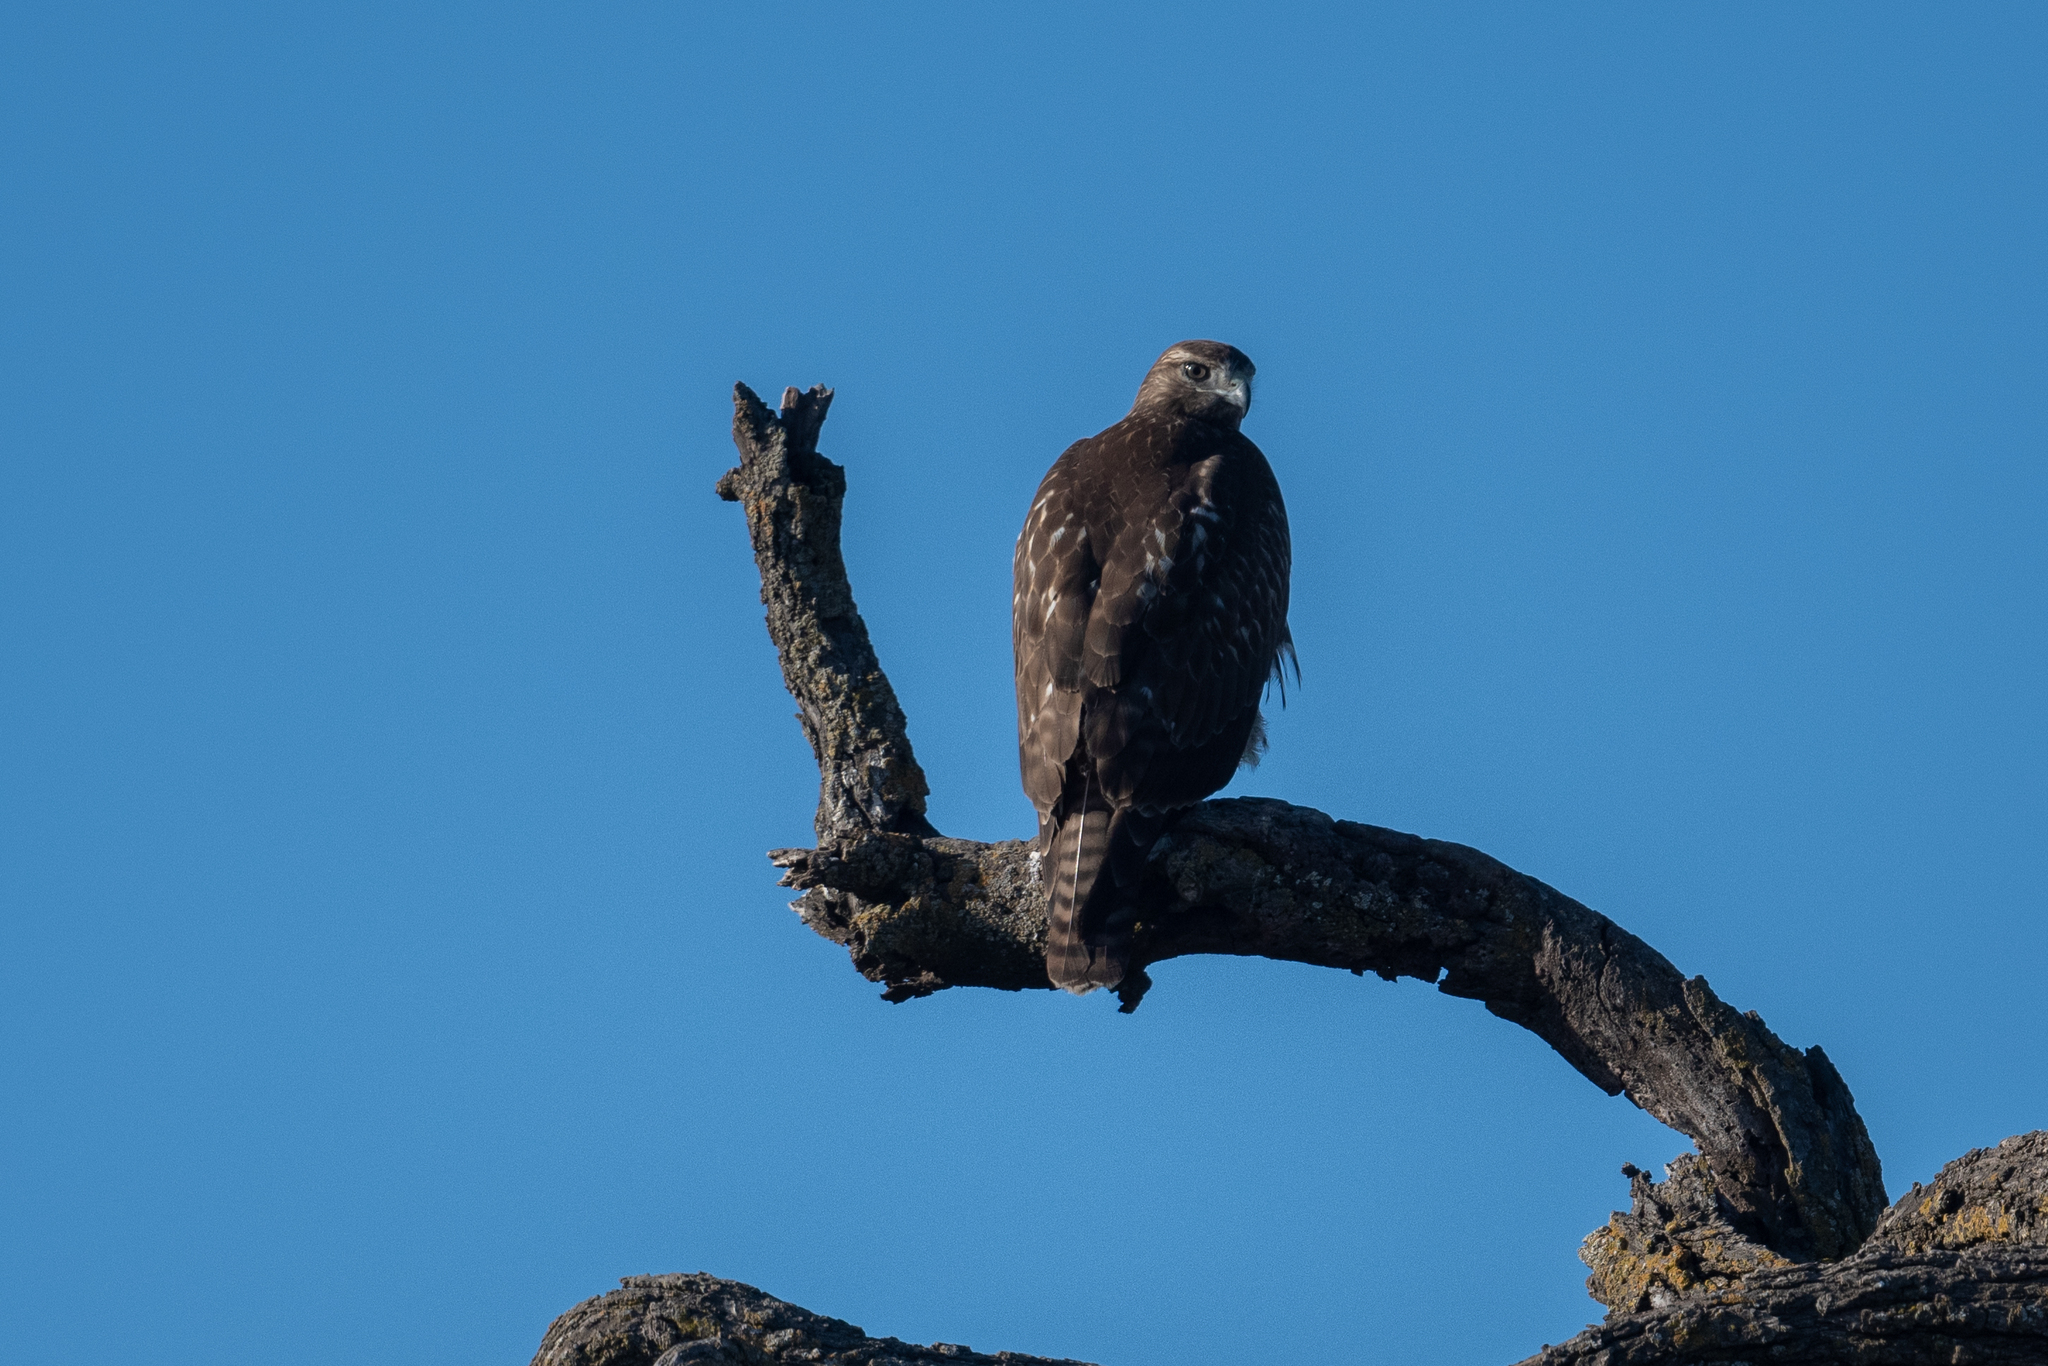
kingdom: Animalia
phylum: Chordata
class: Aves
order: Accipitriformes
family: Accipitridae
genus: Buteo
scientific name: Buteo jamaicensis
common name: Red-tailed hawk
